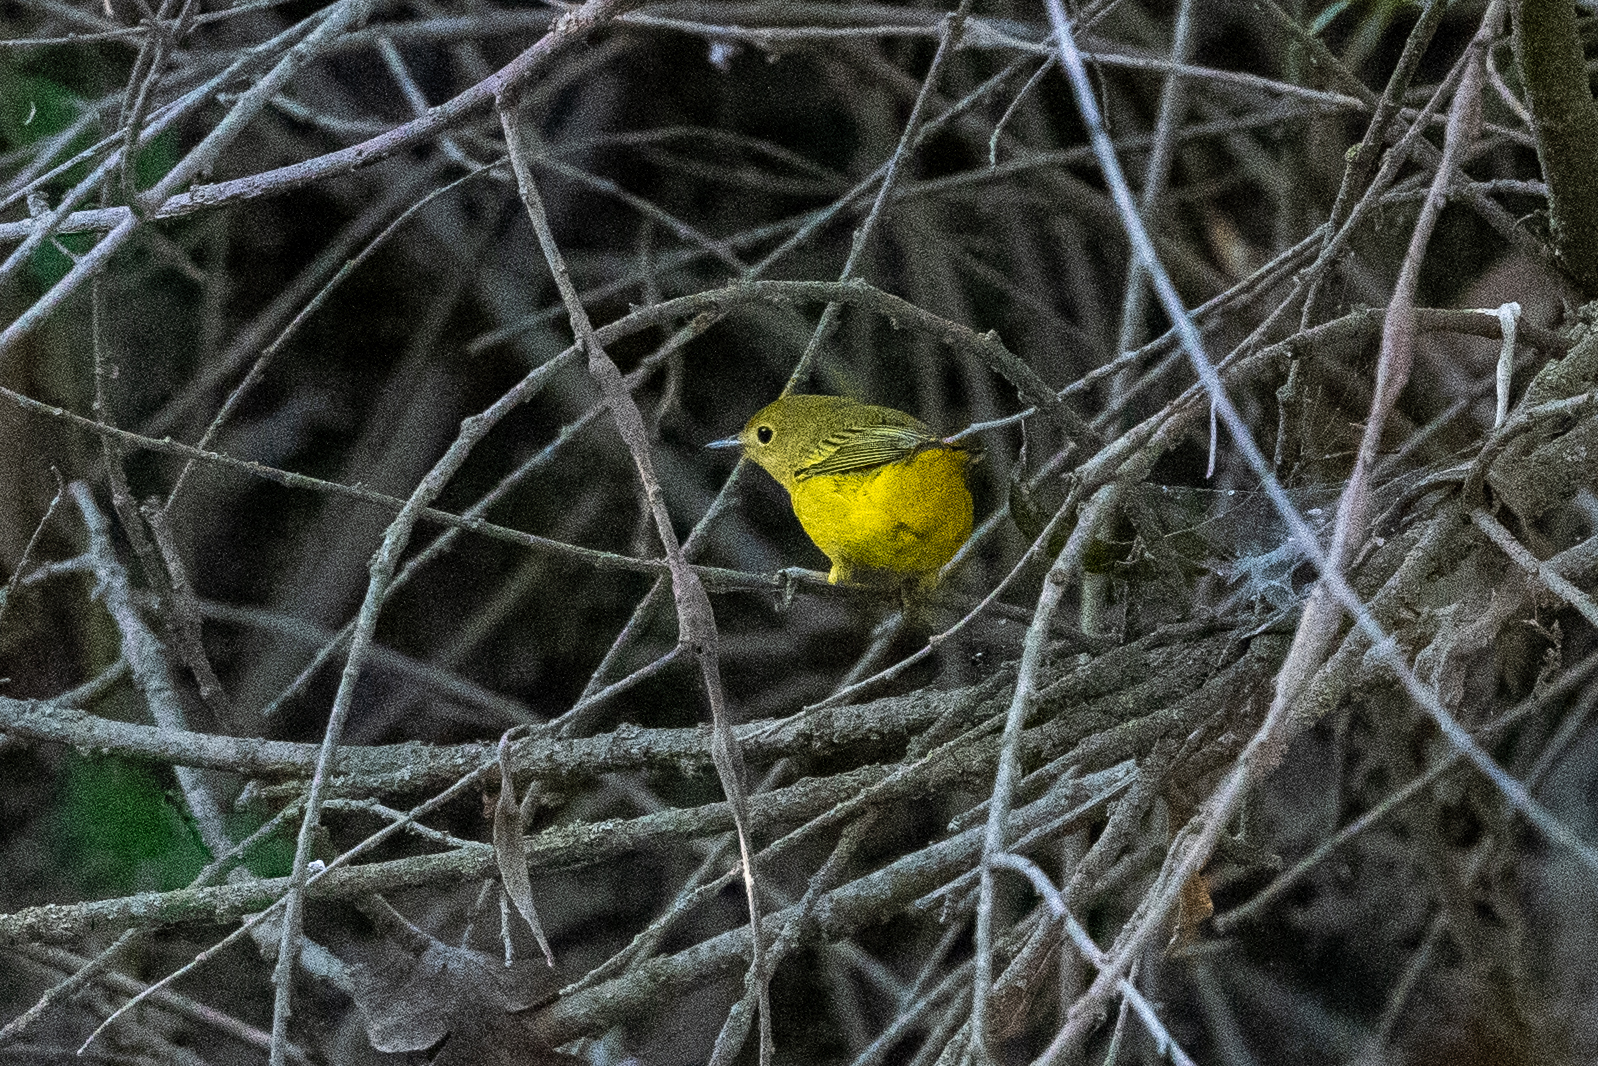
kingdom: Animalia
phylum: Chordata
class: Aves
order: Passeriformes
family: Parulidae
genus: Setophaga
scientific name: Setophaga petechia
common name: Yellow warbler
